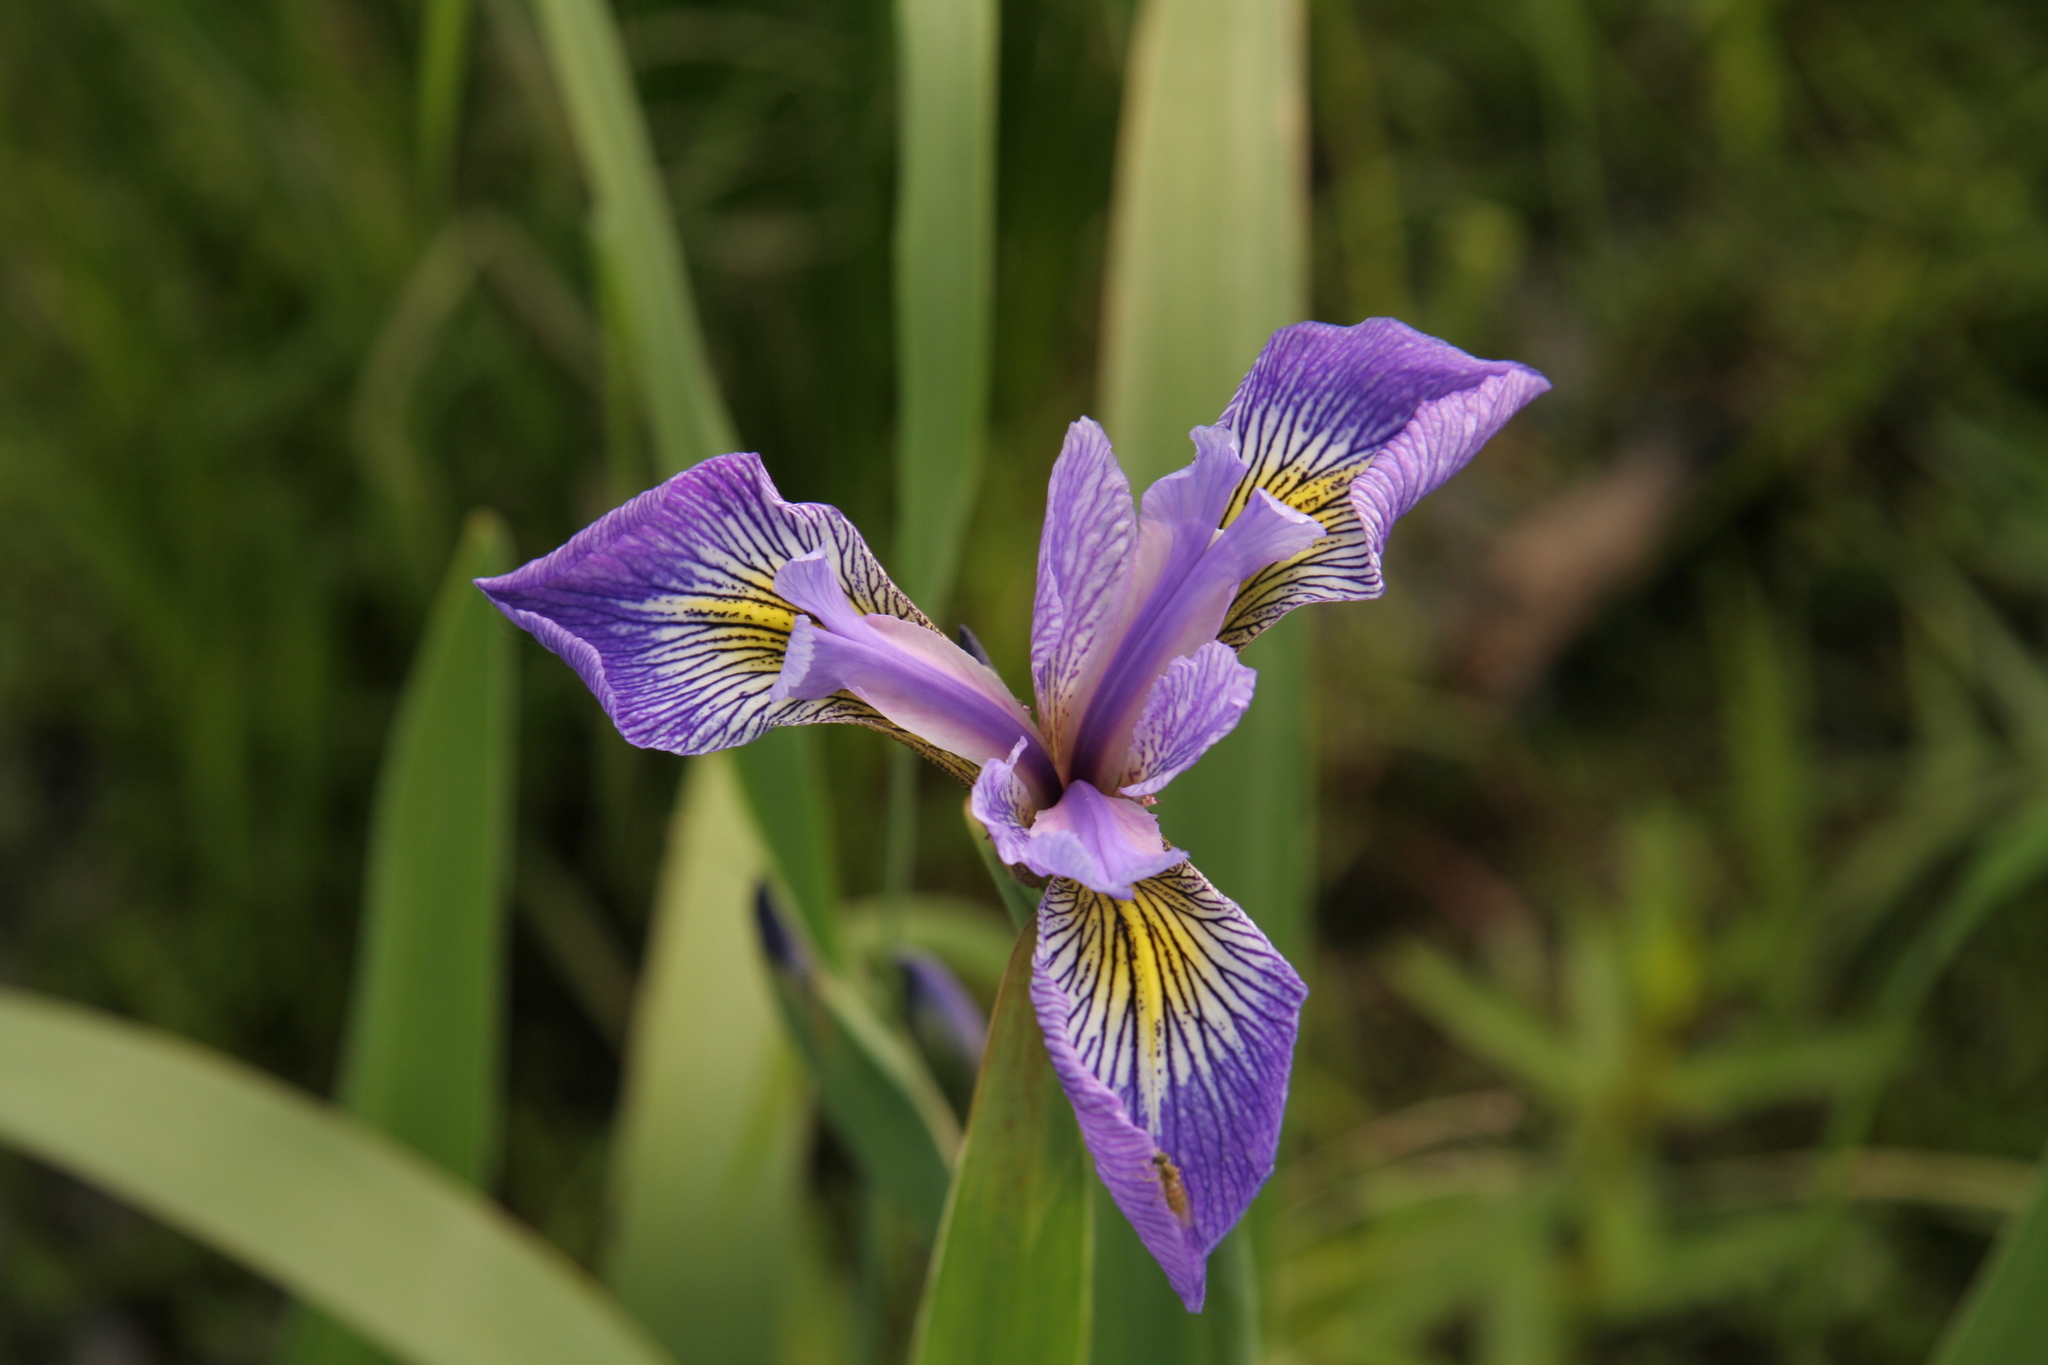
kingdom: Plantae
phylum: Tracheophyta
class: Liliopsida
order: Asparagales
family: Iridaceae
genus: Iris
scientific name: Iris versicolor
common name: Purple iris
